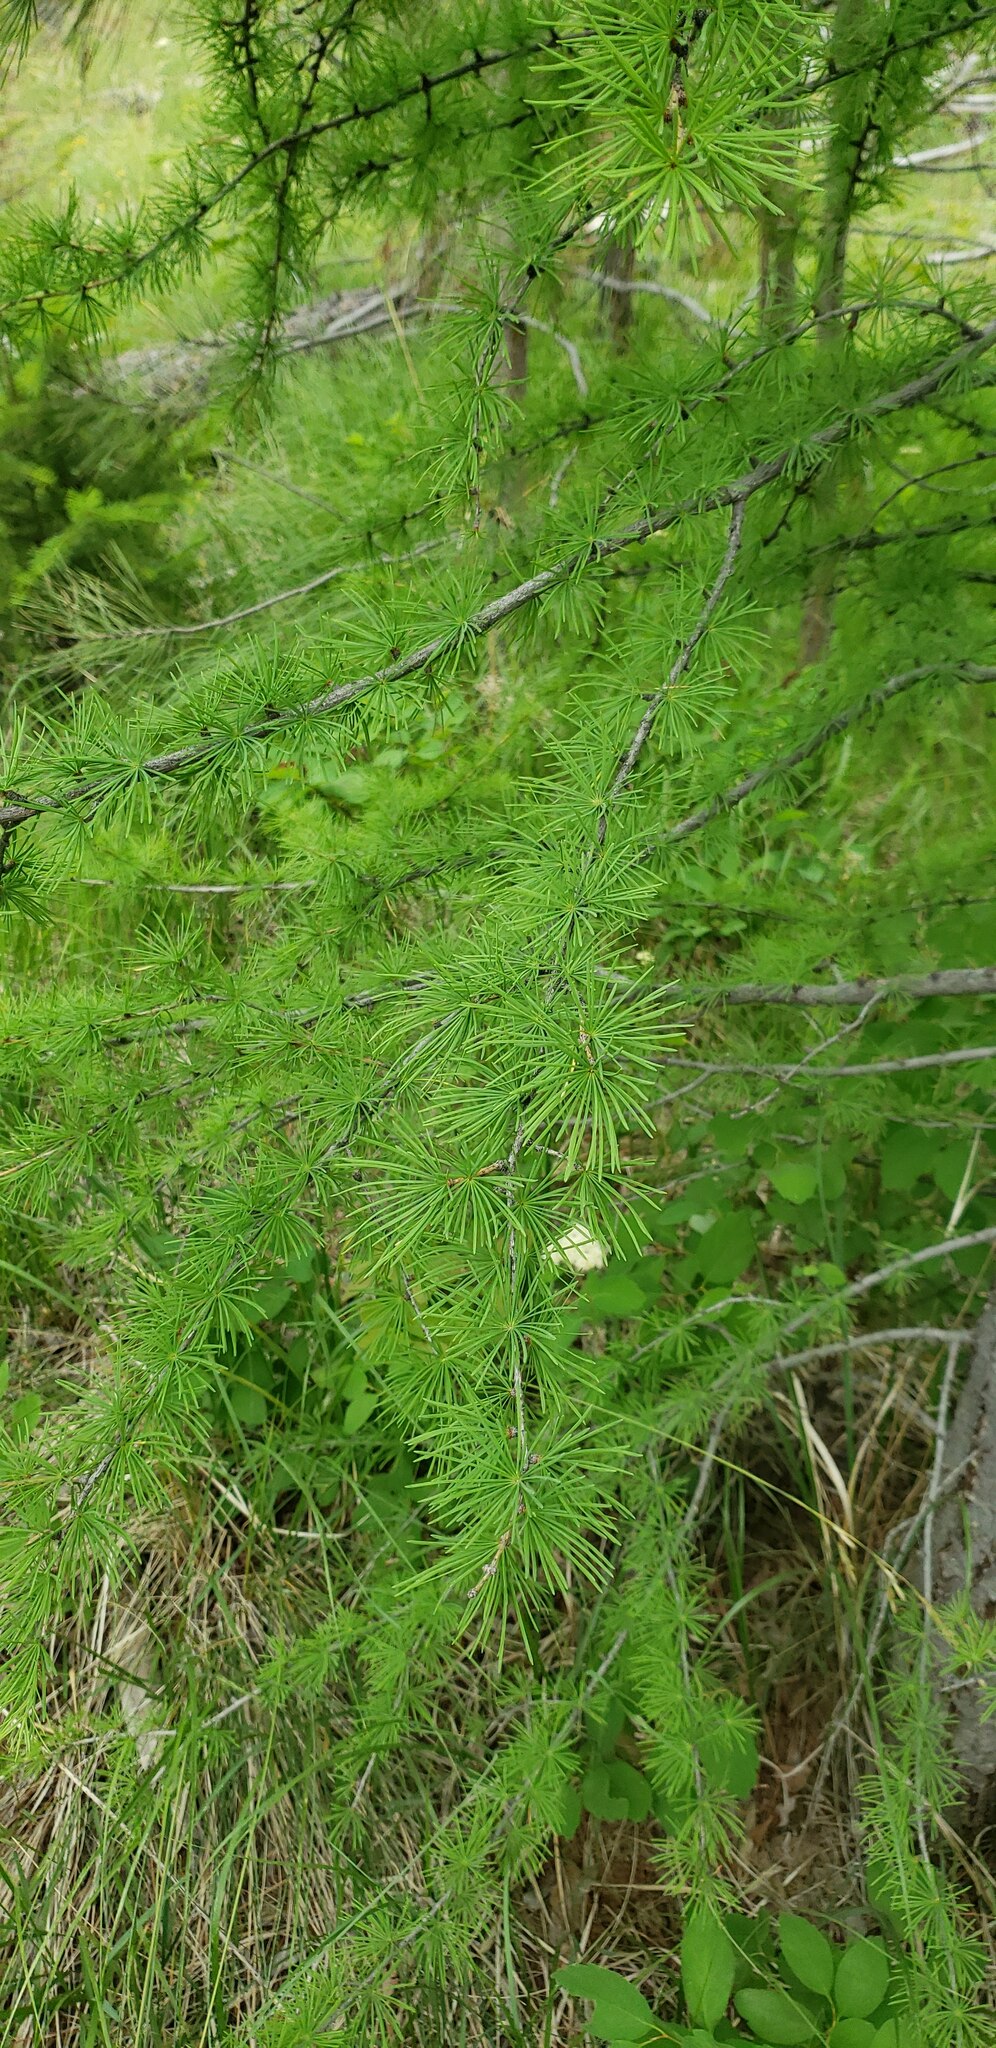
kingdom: Plantae
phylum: Tracheophyta
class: Pinopsida
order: Pinales
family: Pinaceae
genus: Larix
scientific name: Larix occidentalis
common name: Western larch
